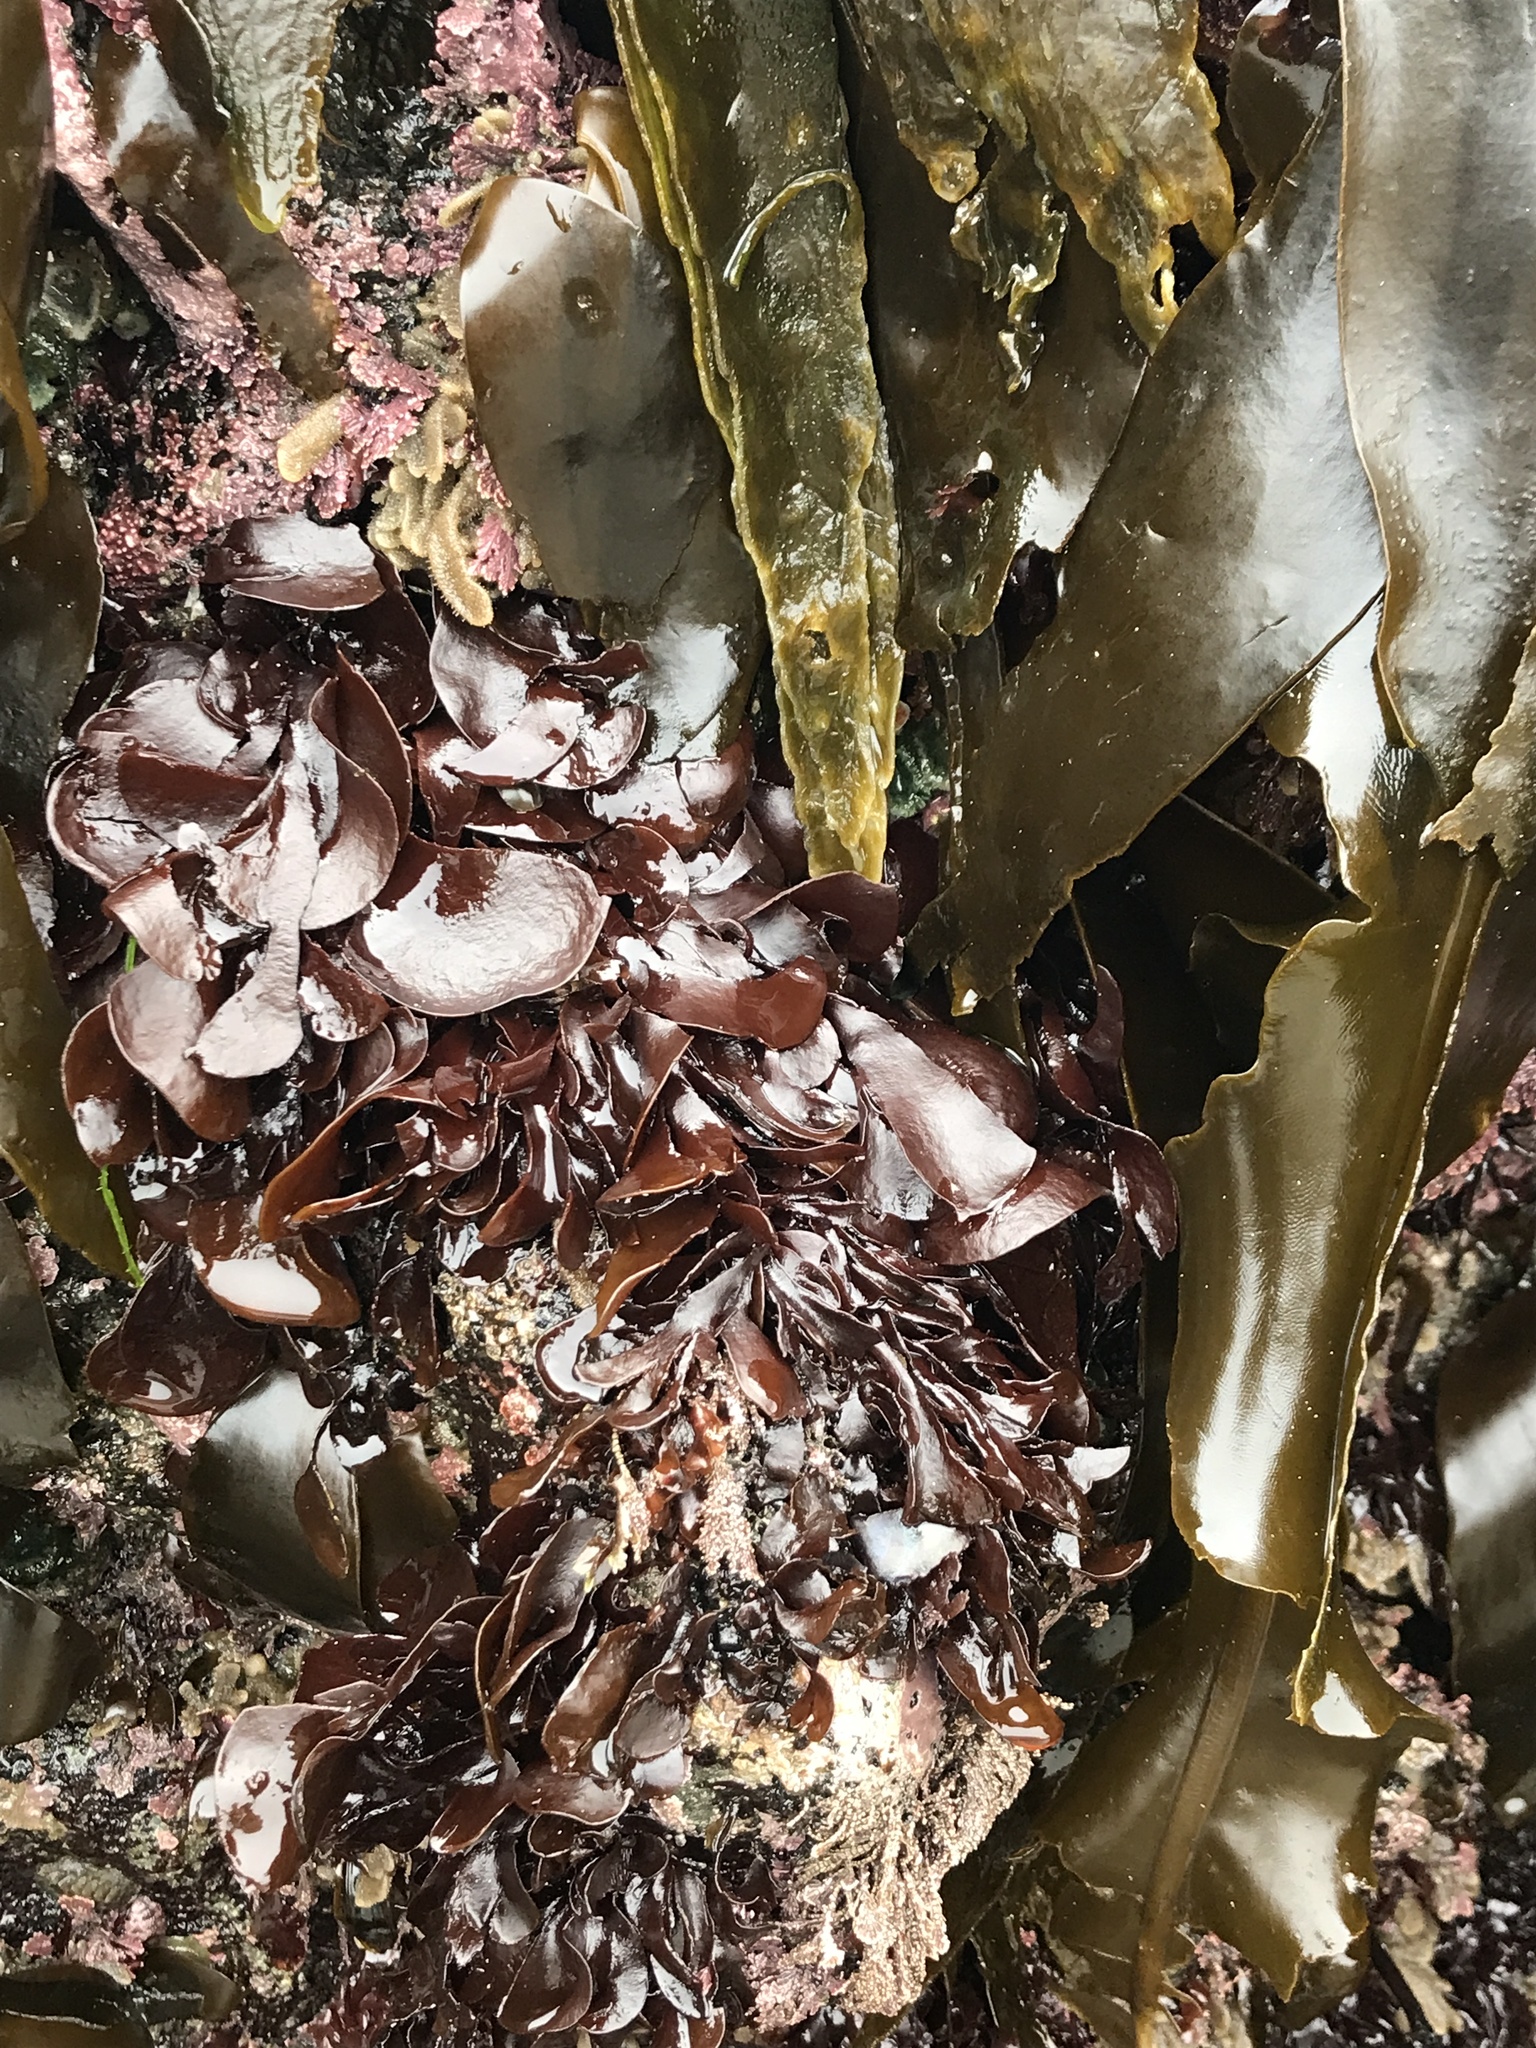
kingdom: Plantae
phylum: Rhodophyta
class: Florideophyceae
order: Gigartinales
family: Dumontiaceae
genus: Dilsea
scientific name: Dilsea californica
